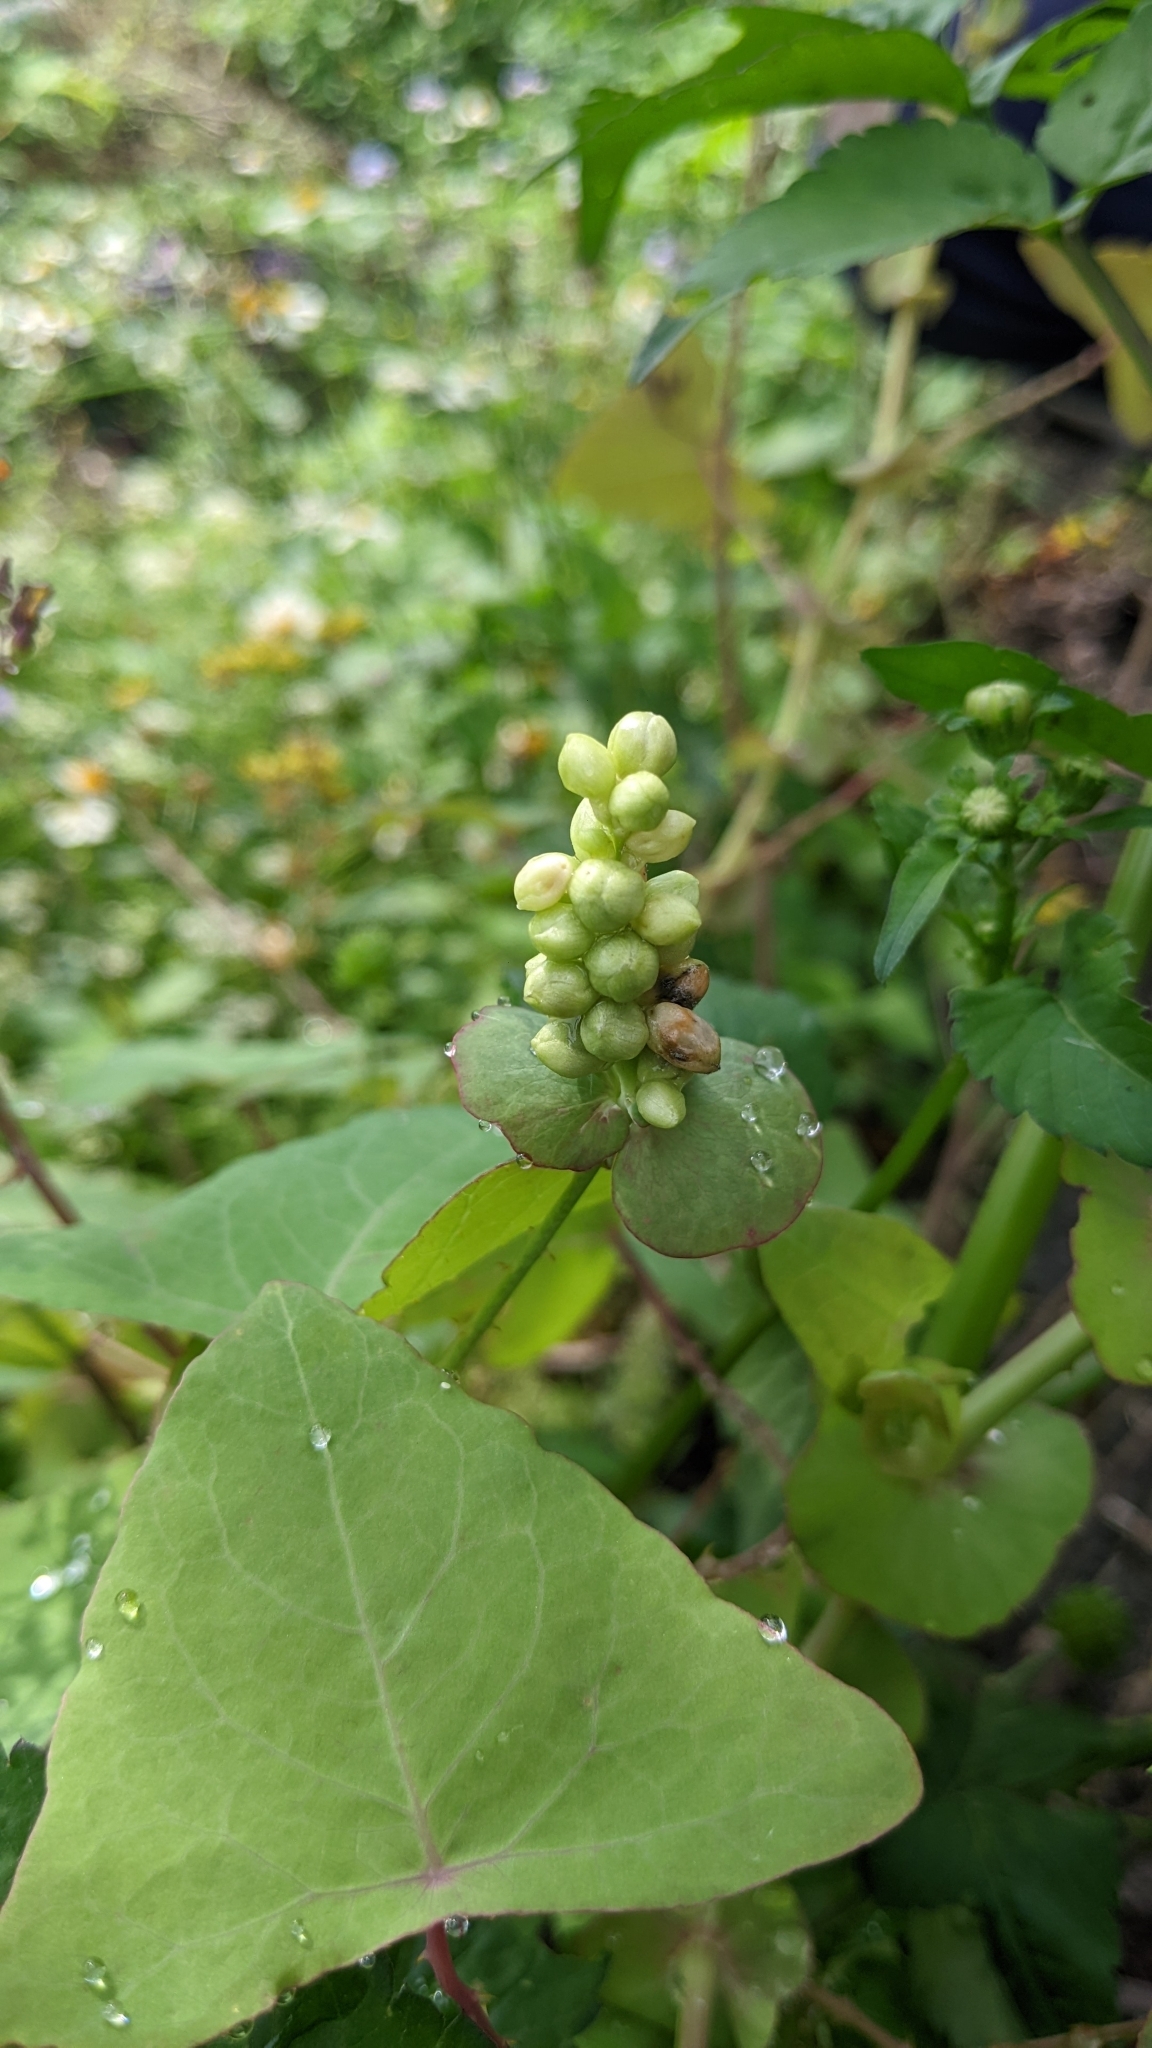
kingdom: Plantae
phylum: Tracheophyta
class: Magnoliopsida
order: Caryophyllales
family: Polygonaceae
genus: Persicaria
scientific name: Persicaria perfoliata
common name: Asiatic tearthumb
